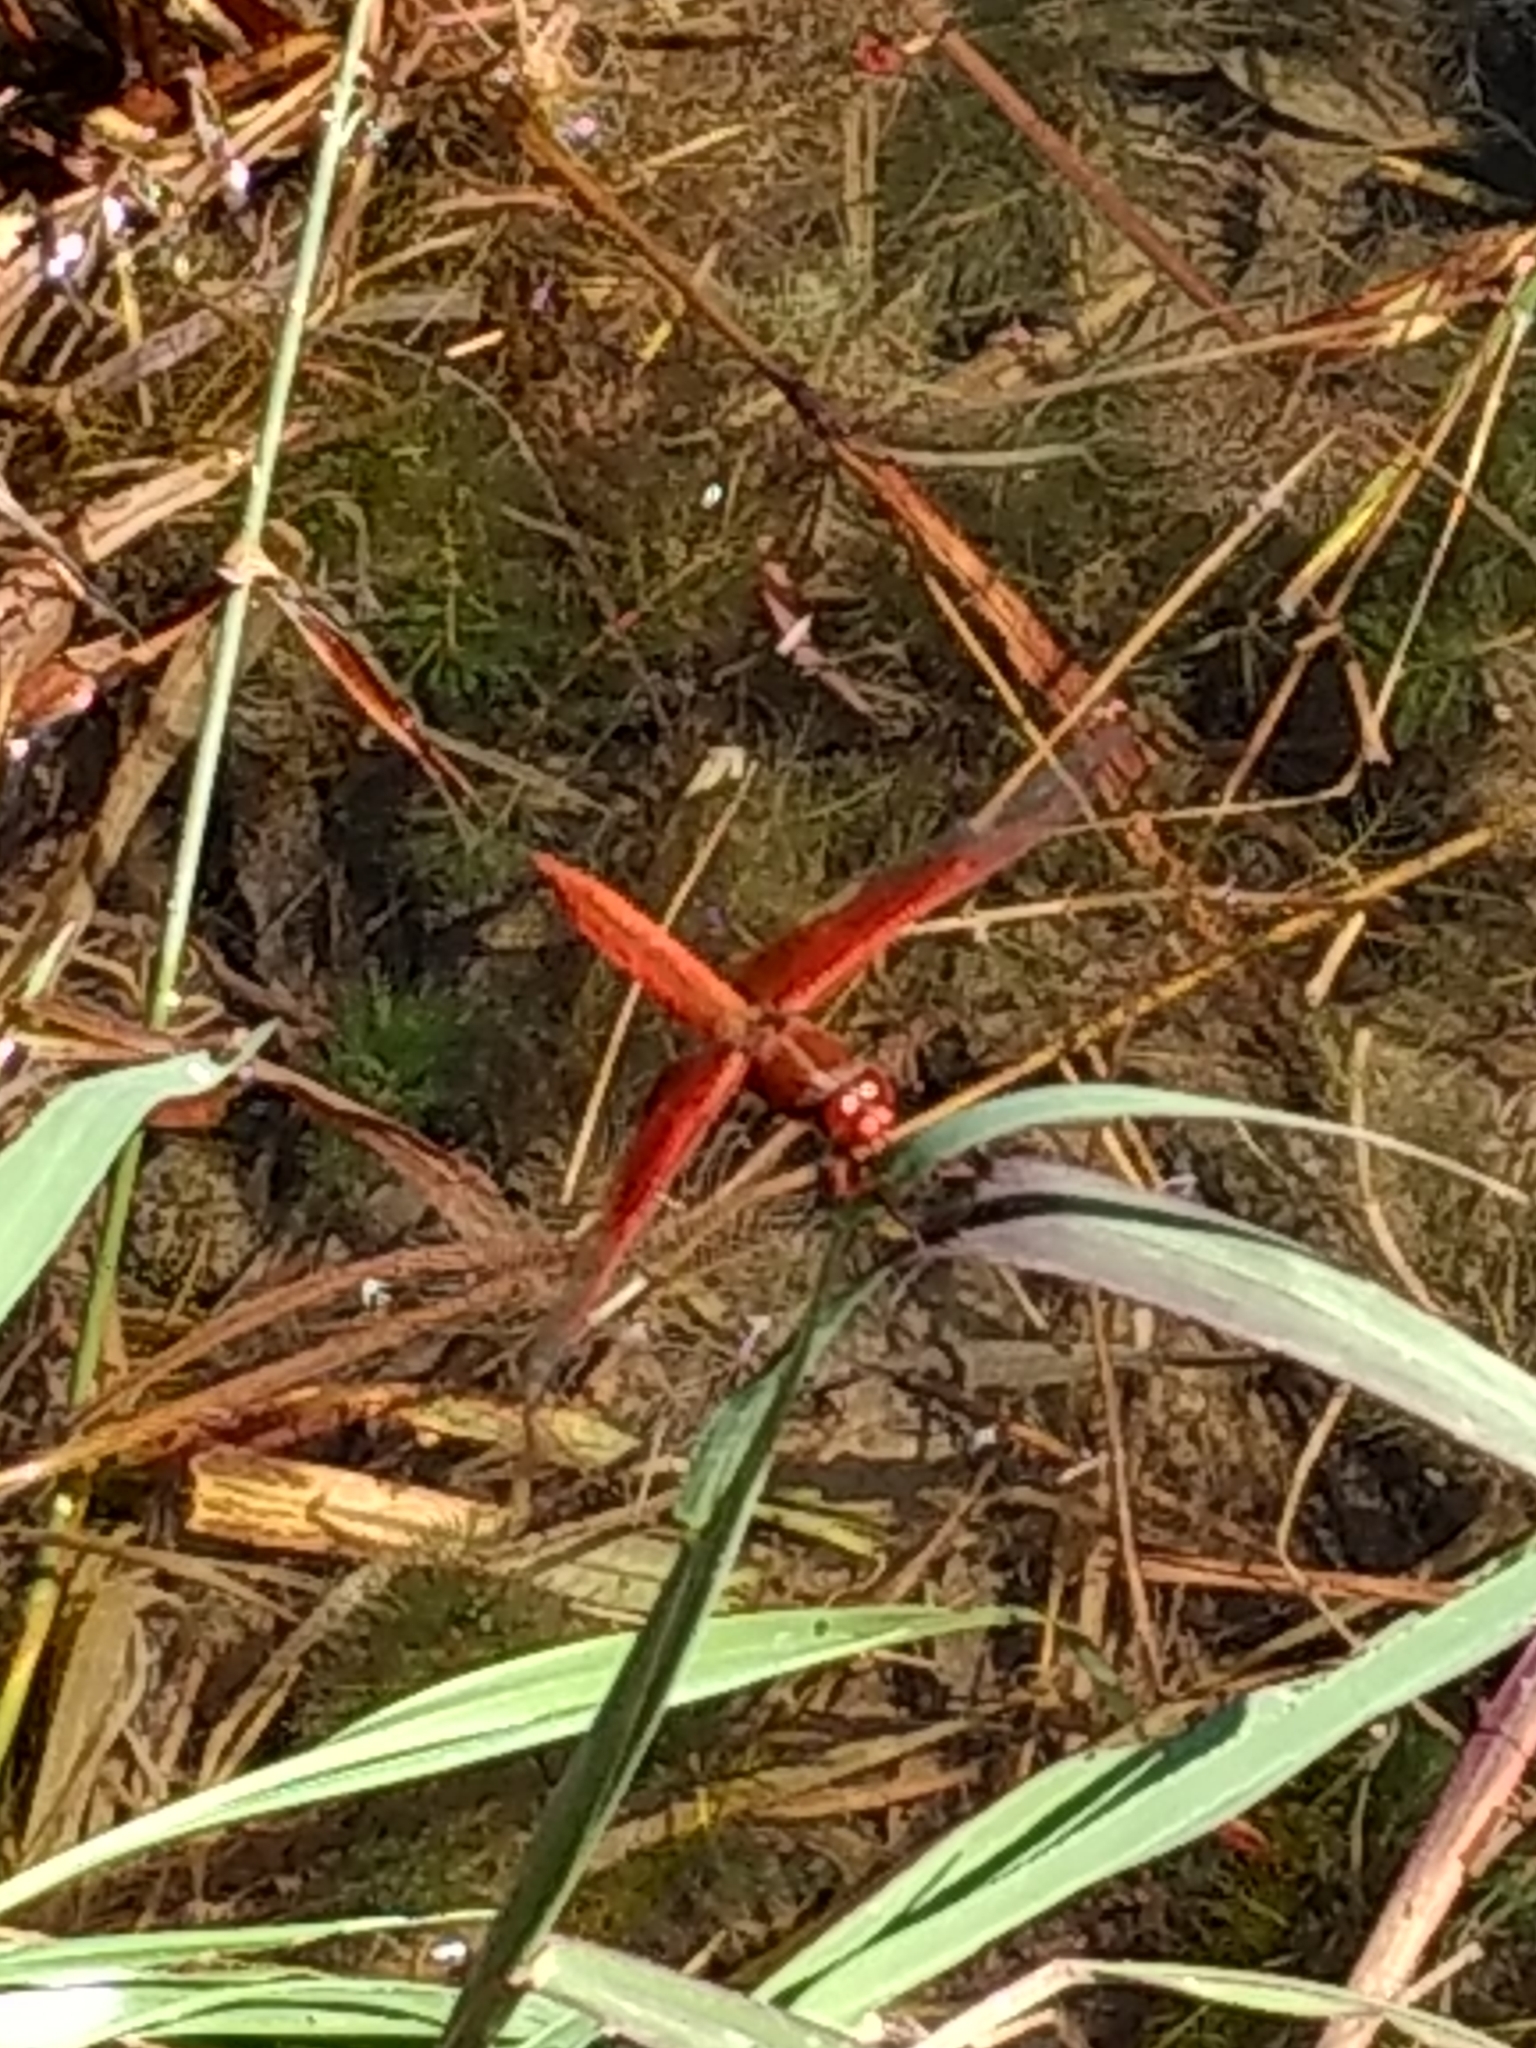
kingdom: Animalia
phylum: Arthropoda
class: Insecta
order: Odonata
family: Libellulidae
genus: Libellula
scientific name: Libellula saturata
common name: Flame skimmer
